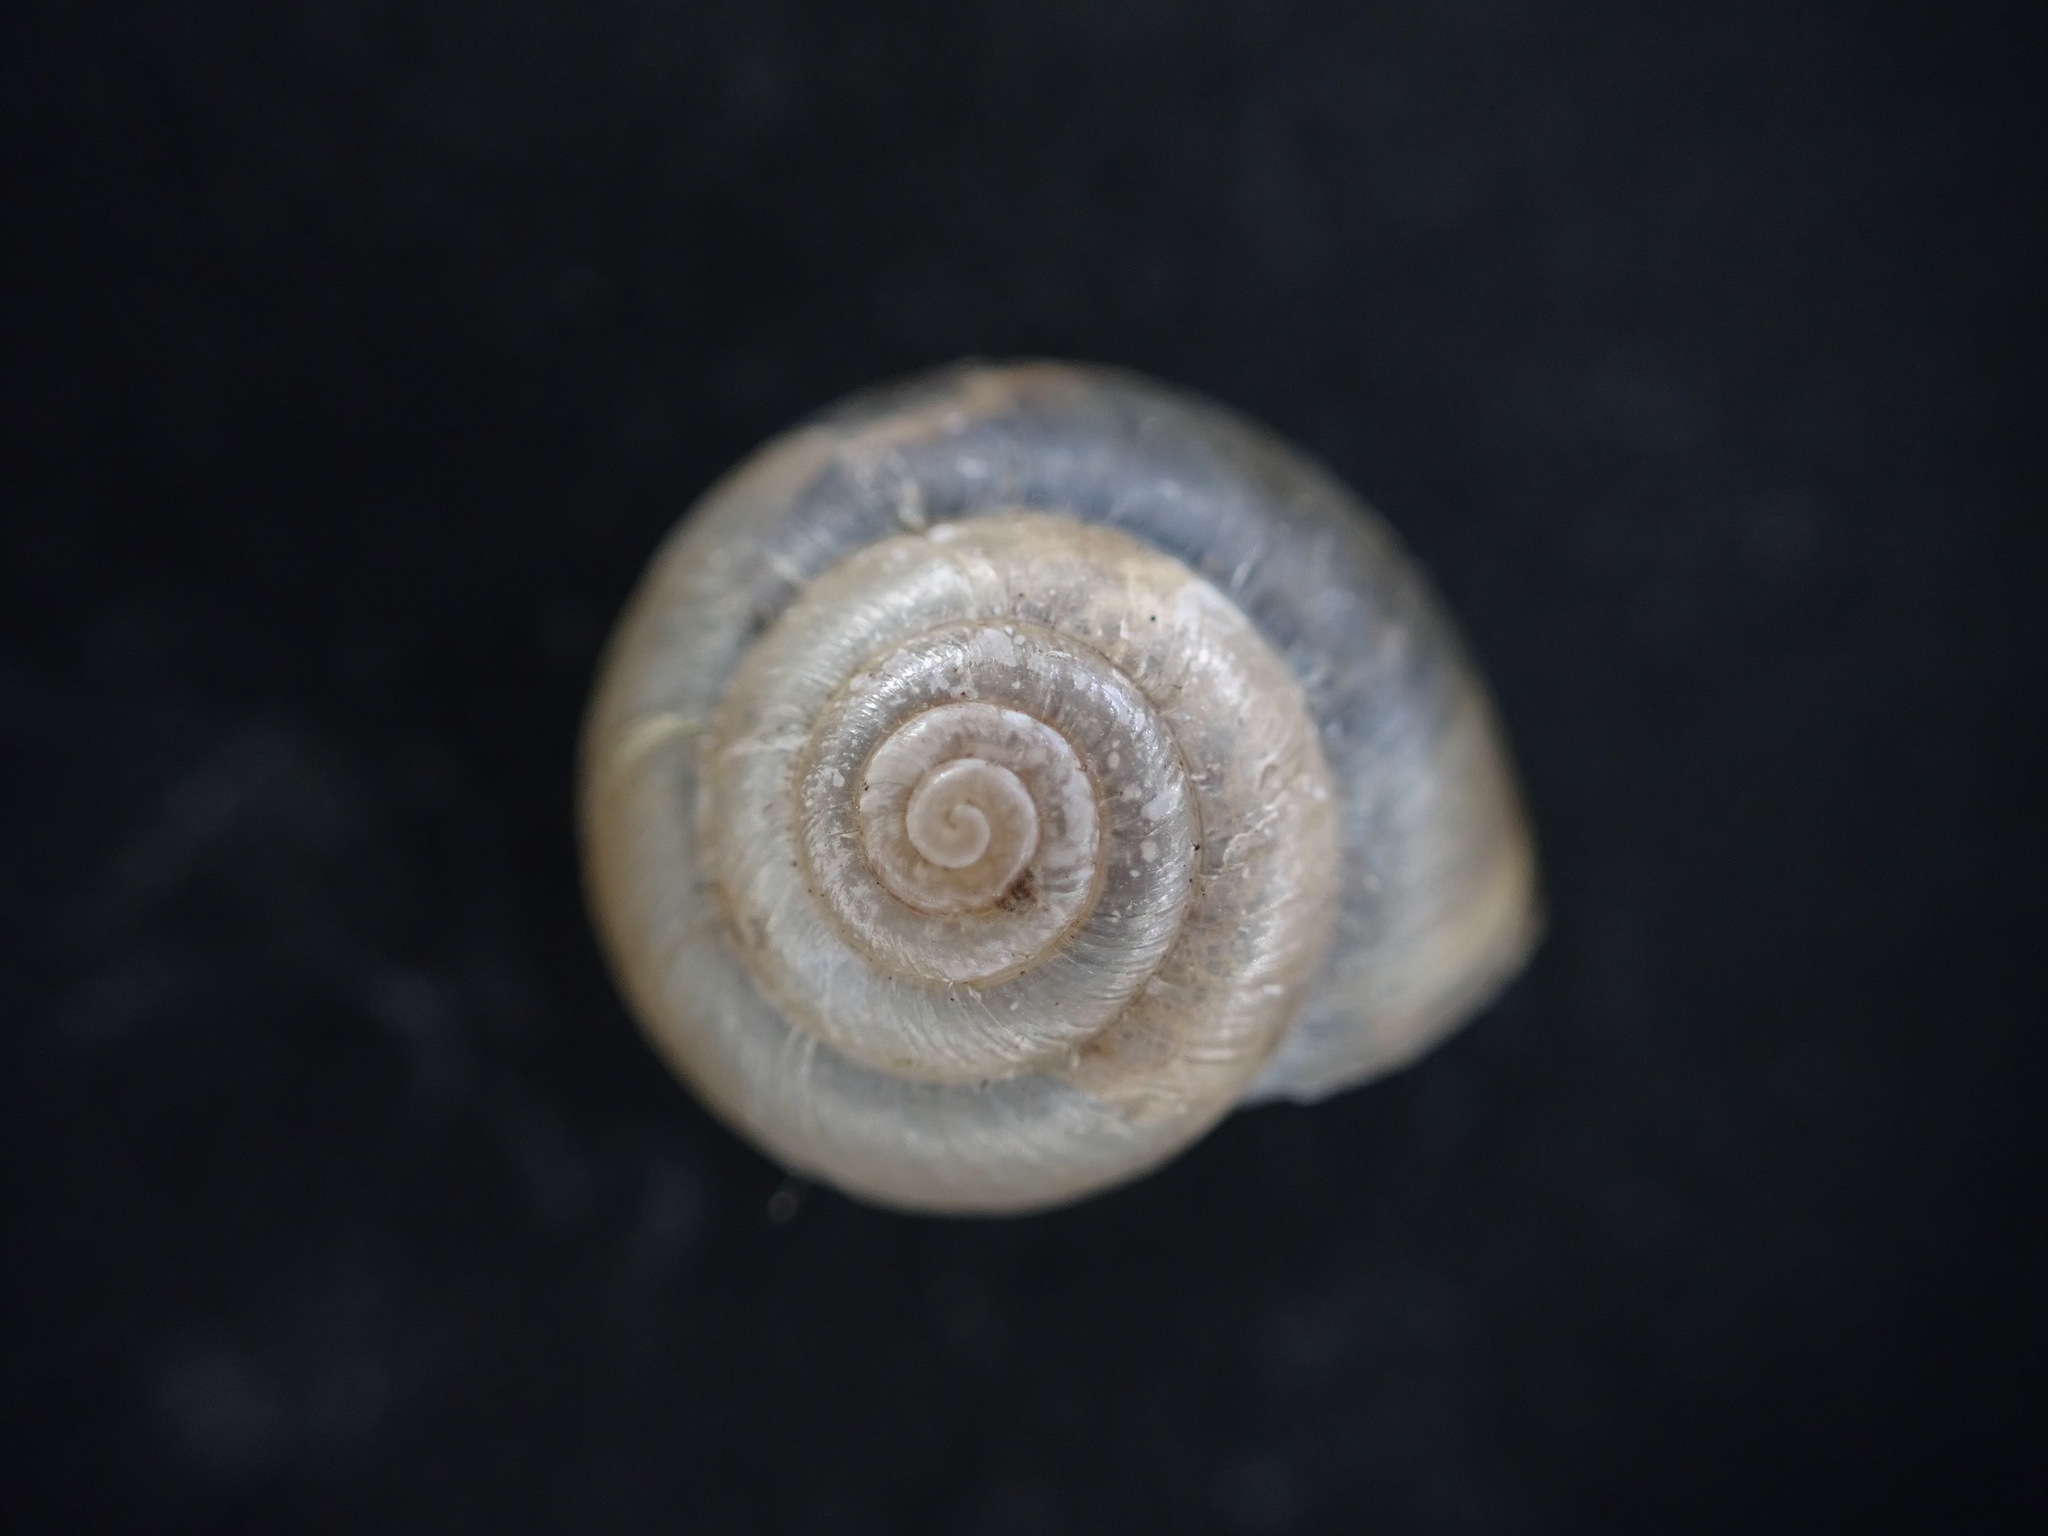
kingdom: Animalia
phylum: Mollusca
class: Gastropoda
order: Stylommatophora
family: Hygromiidae
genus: Monacha
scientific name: Monacha cantiana
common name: Kentish snail
